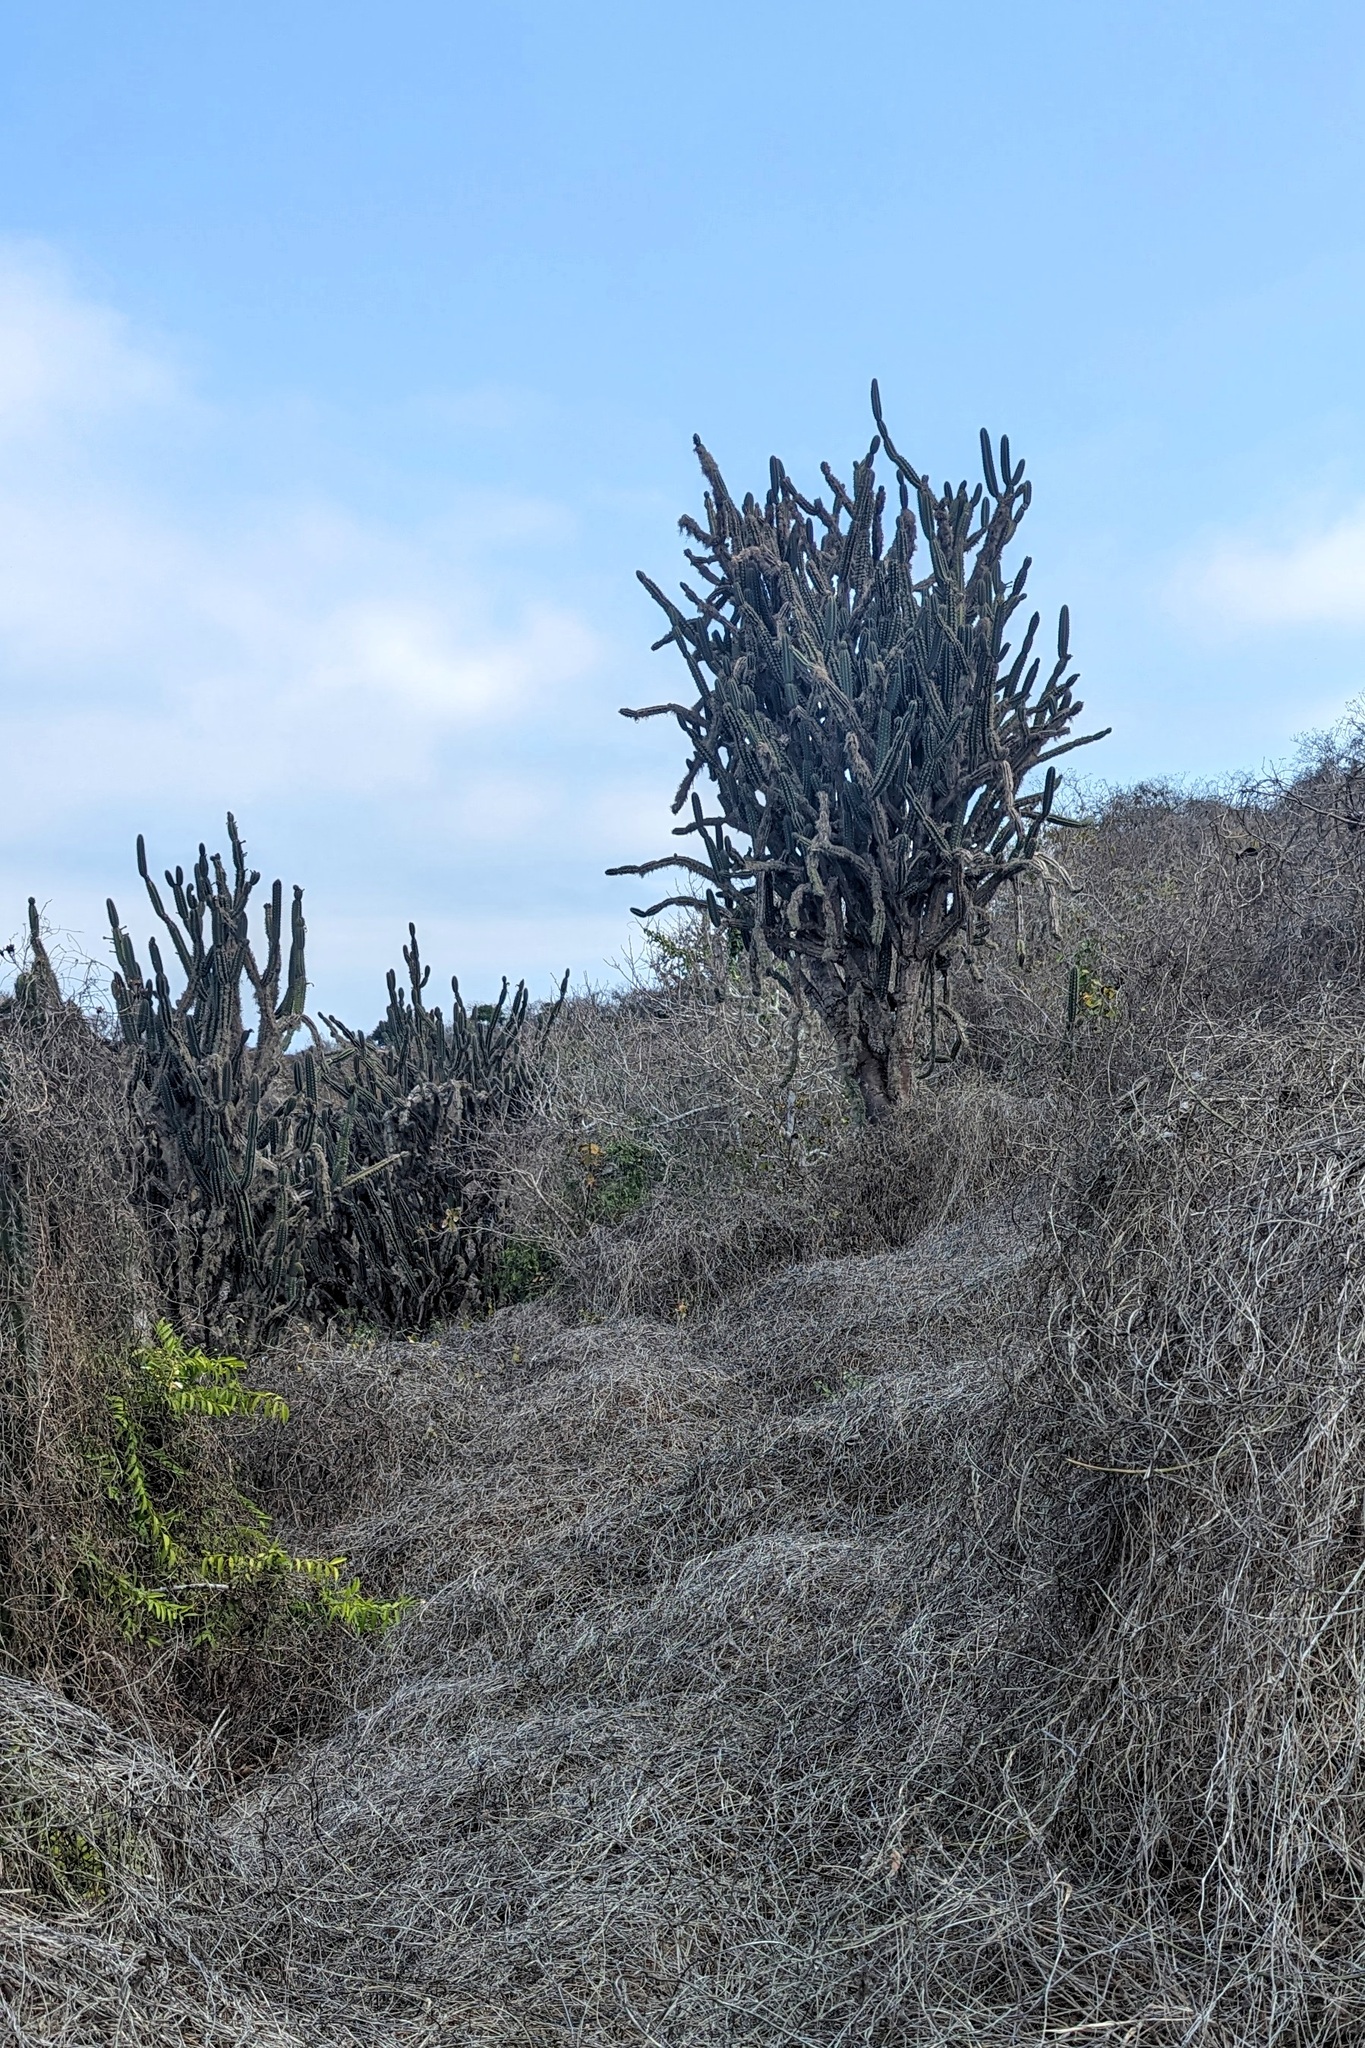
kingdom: Plantae
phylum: Tracheophyta
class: Magnoliopsida
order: Caryophyllales
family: Cactaceae
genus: Armatocereus
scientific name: Armatocereus cartwrightianus
